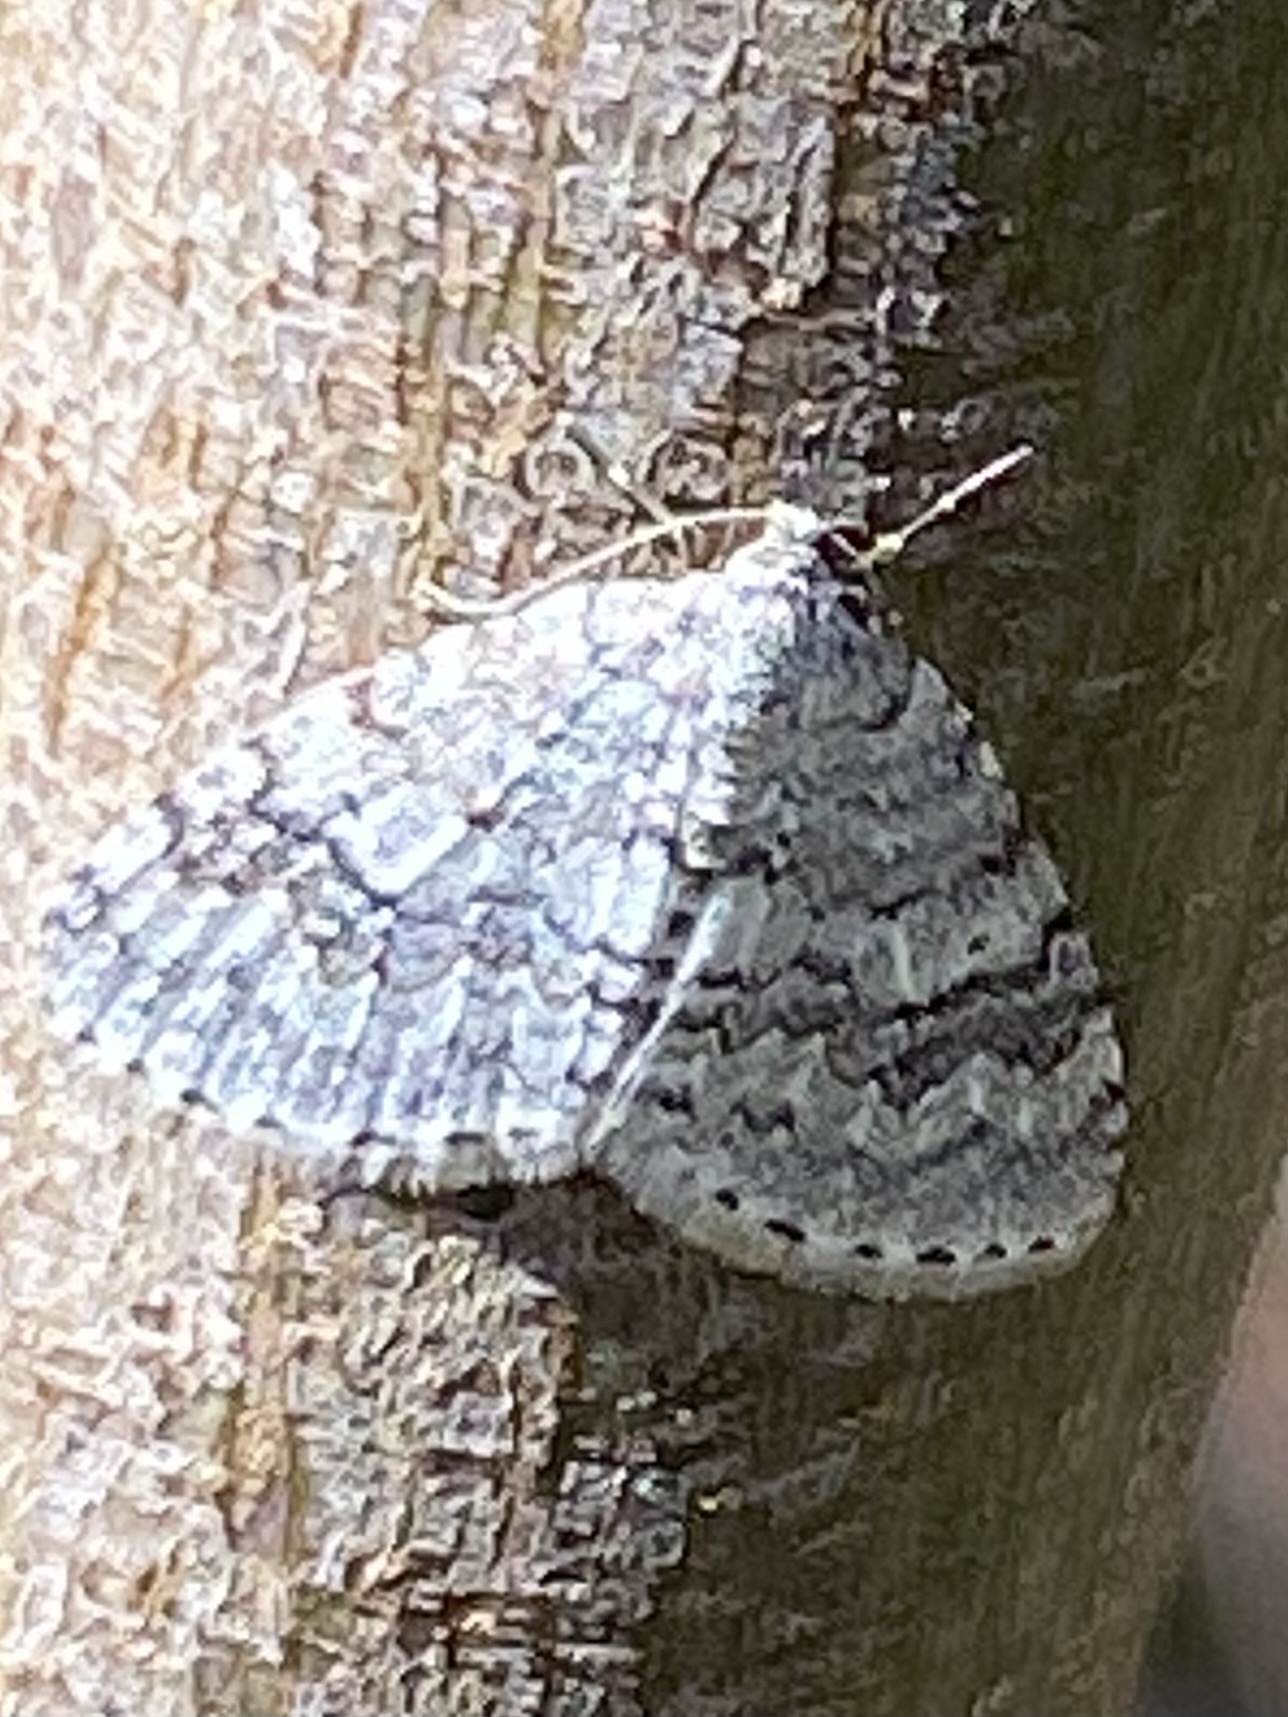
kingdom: Animalia
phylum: Arthropoda
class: Insecta
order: Lepidoptera
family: Geometridae
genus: Venusia
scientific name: Venusia pearsalli
